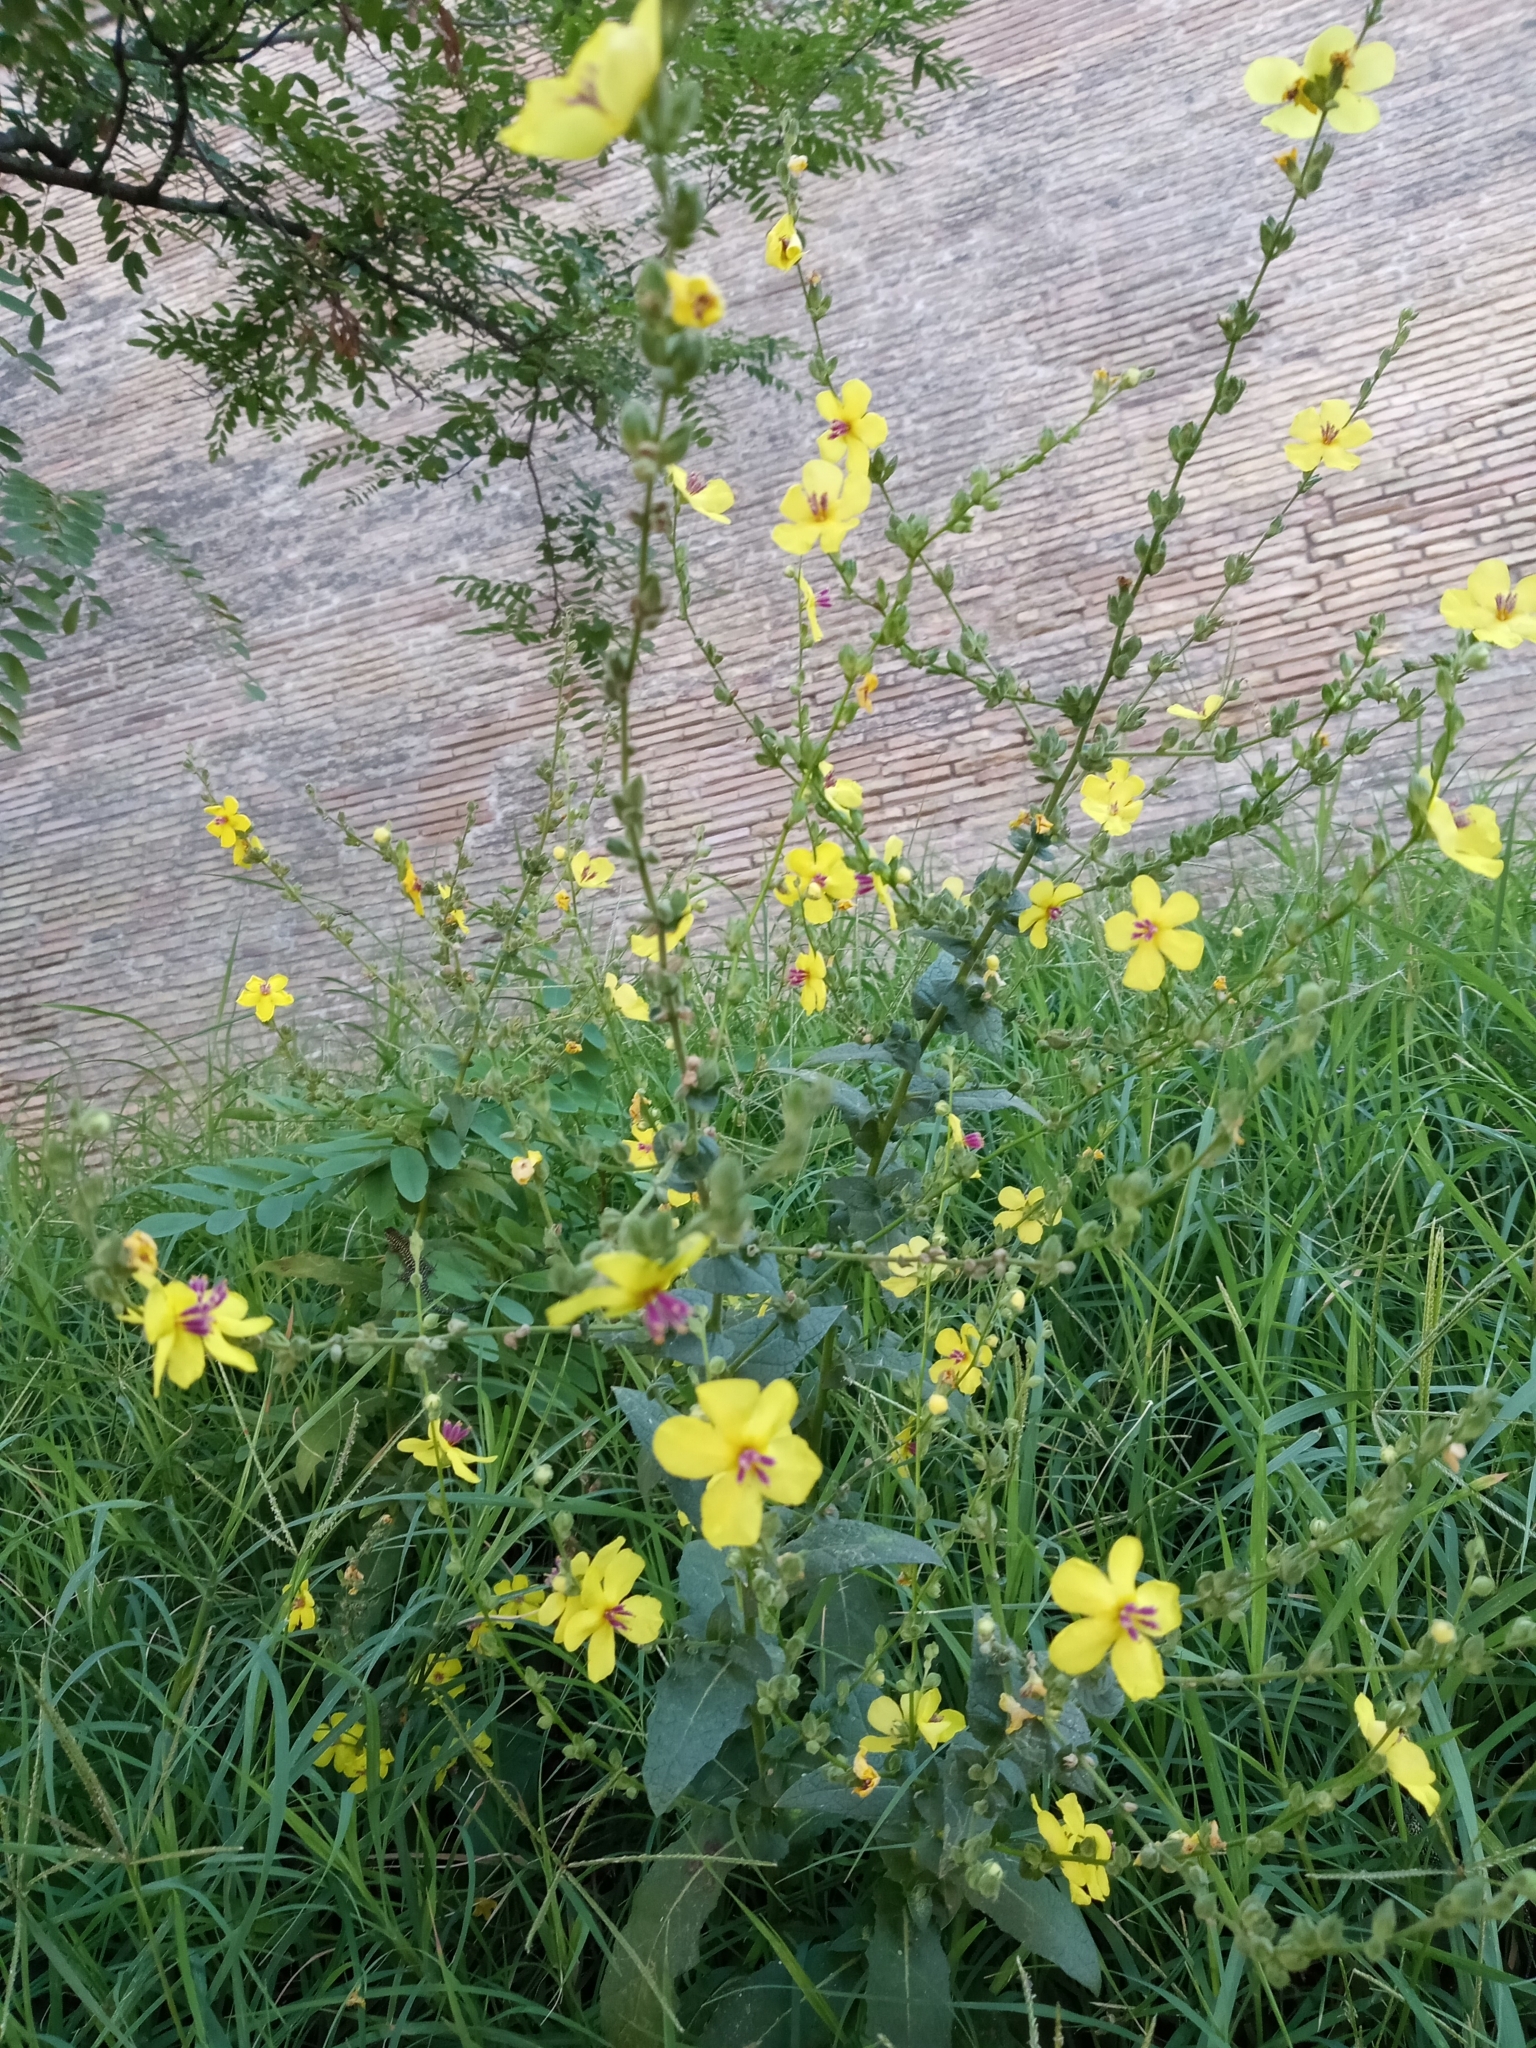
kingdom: Plantae
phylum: Tracheophyta
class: Magnoliopsida
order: Lamiales
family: Scrophulariaceae
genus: Verbascum
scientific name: Verbascum sinuatum
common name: Wavyleaf mullein
